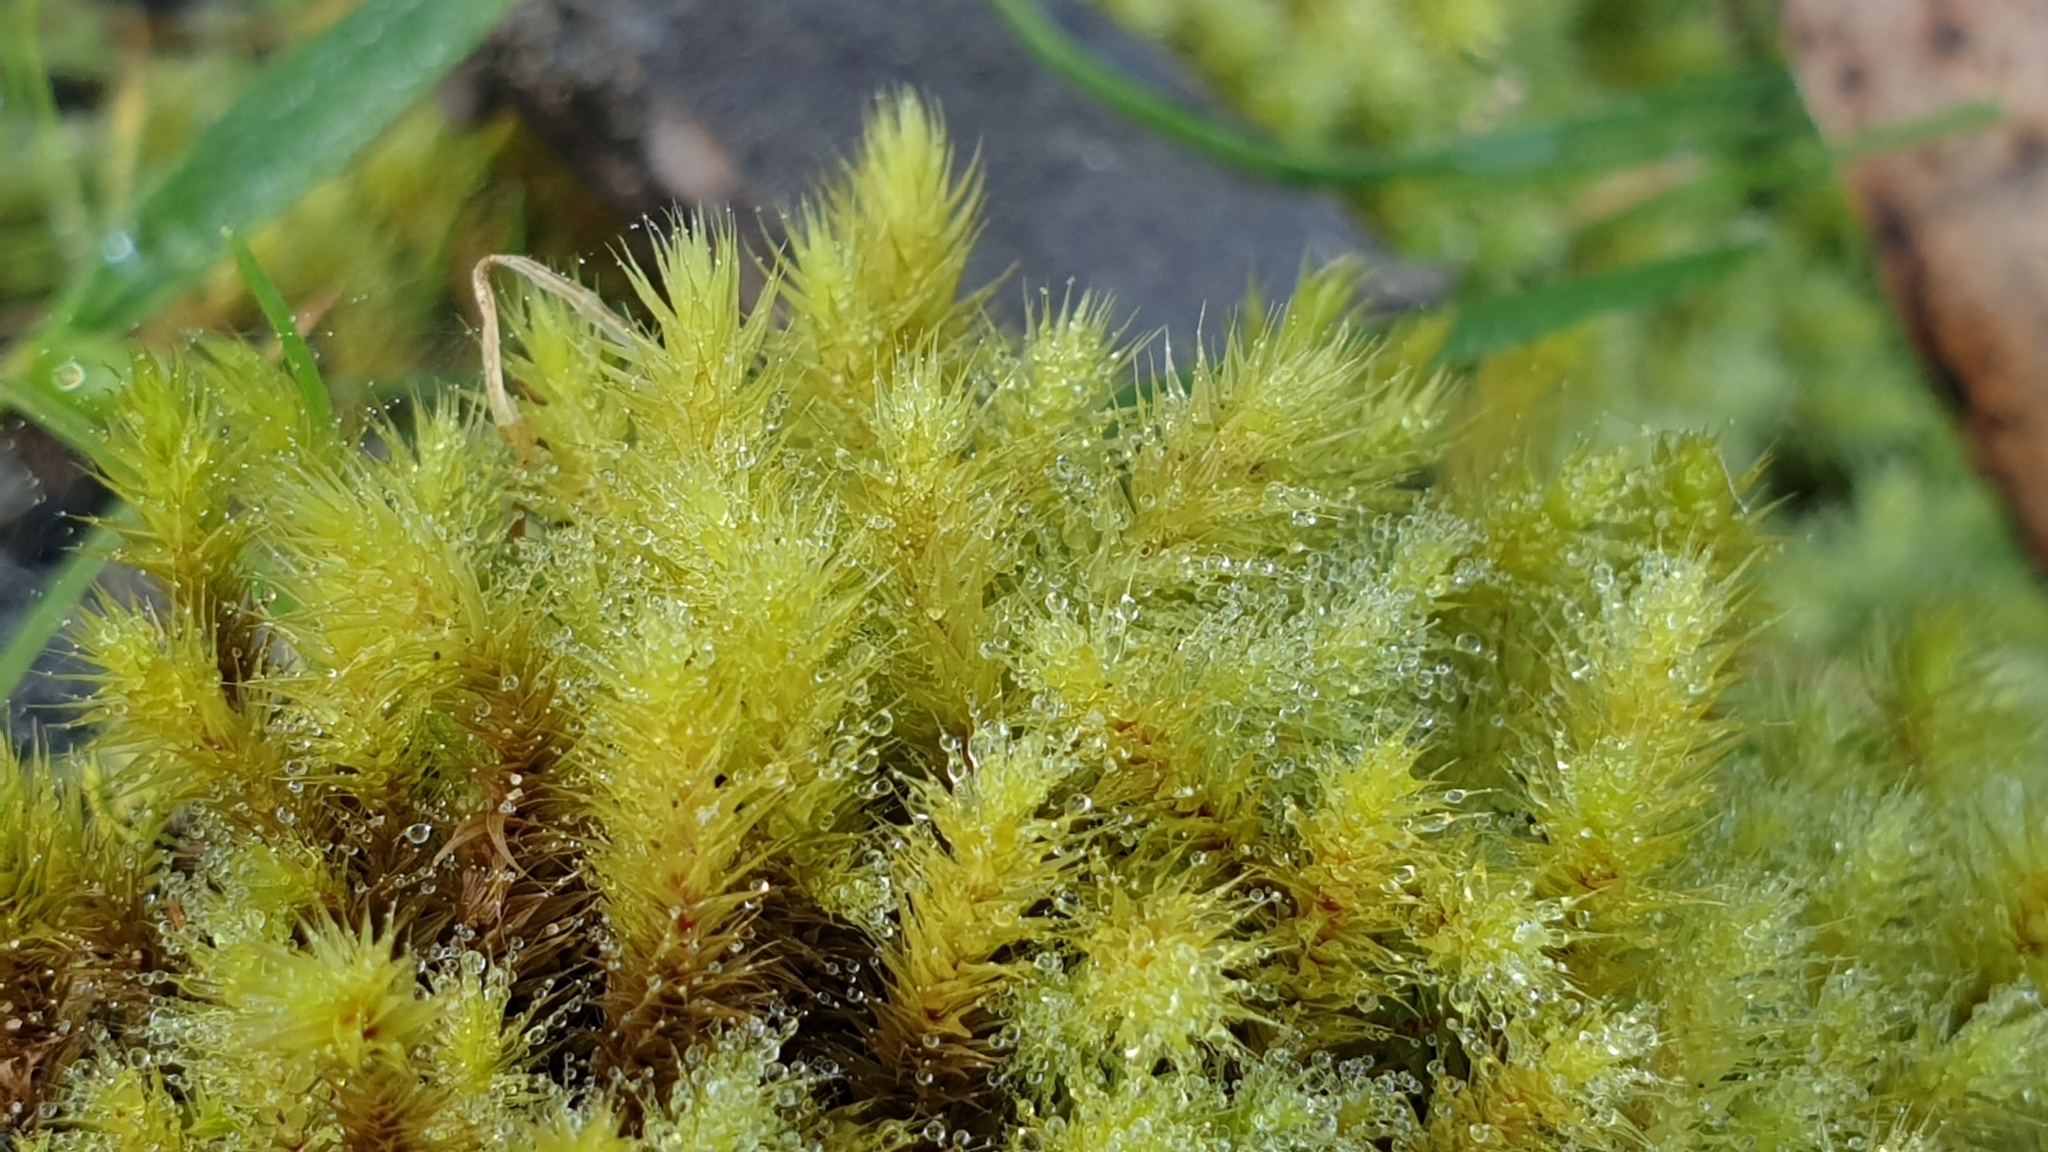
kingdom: Plantae
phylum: Bryophyta
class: Bryopsida
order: Bartramiales
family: Bartramiaceae
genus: Breutelia
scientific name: Breutelia affinis
